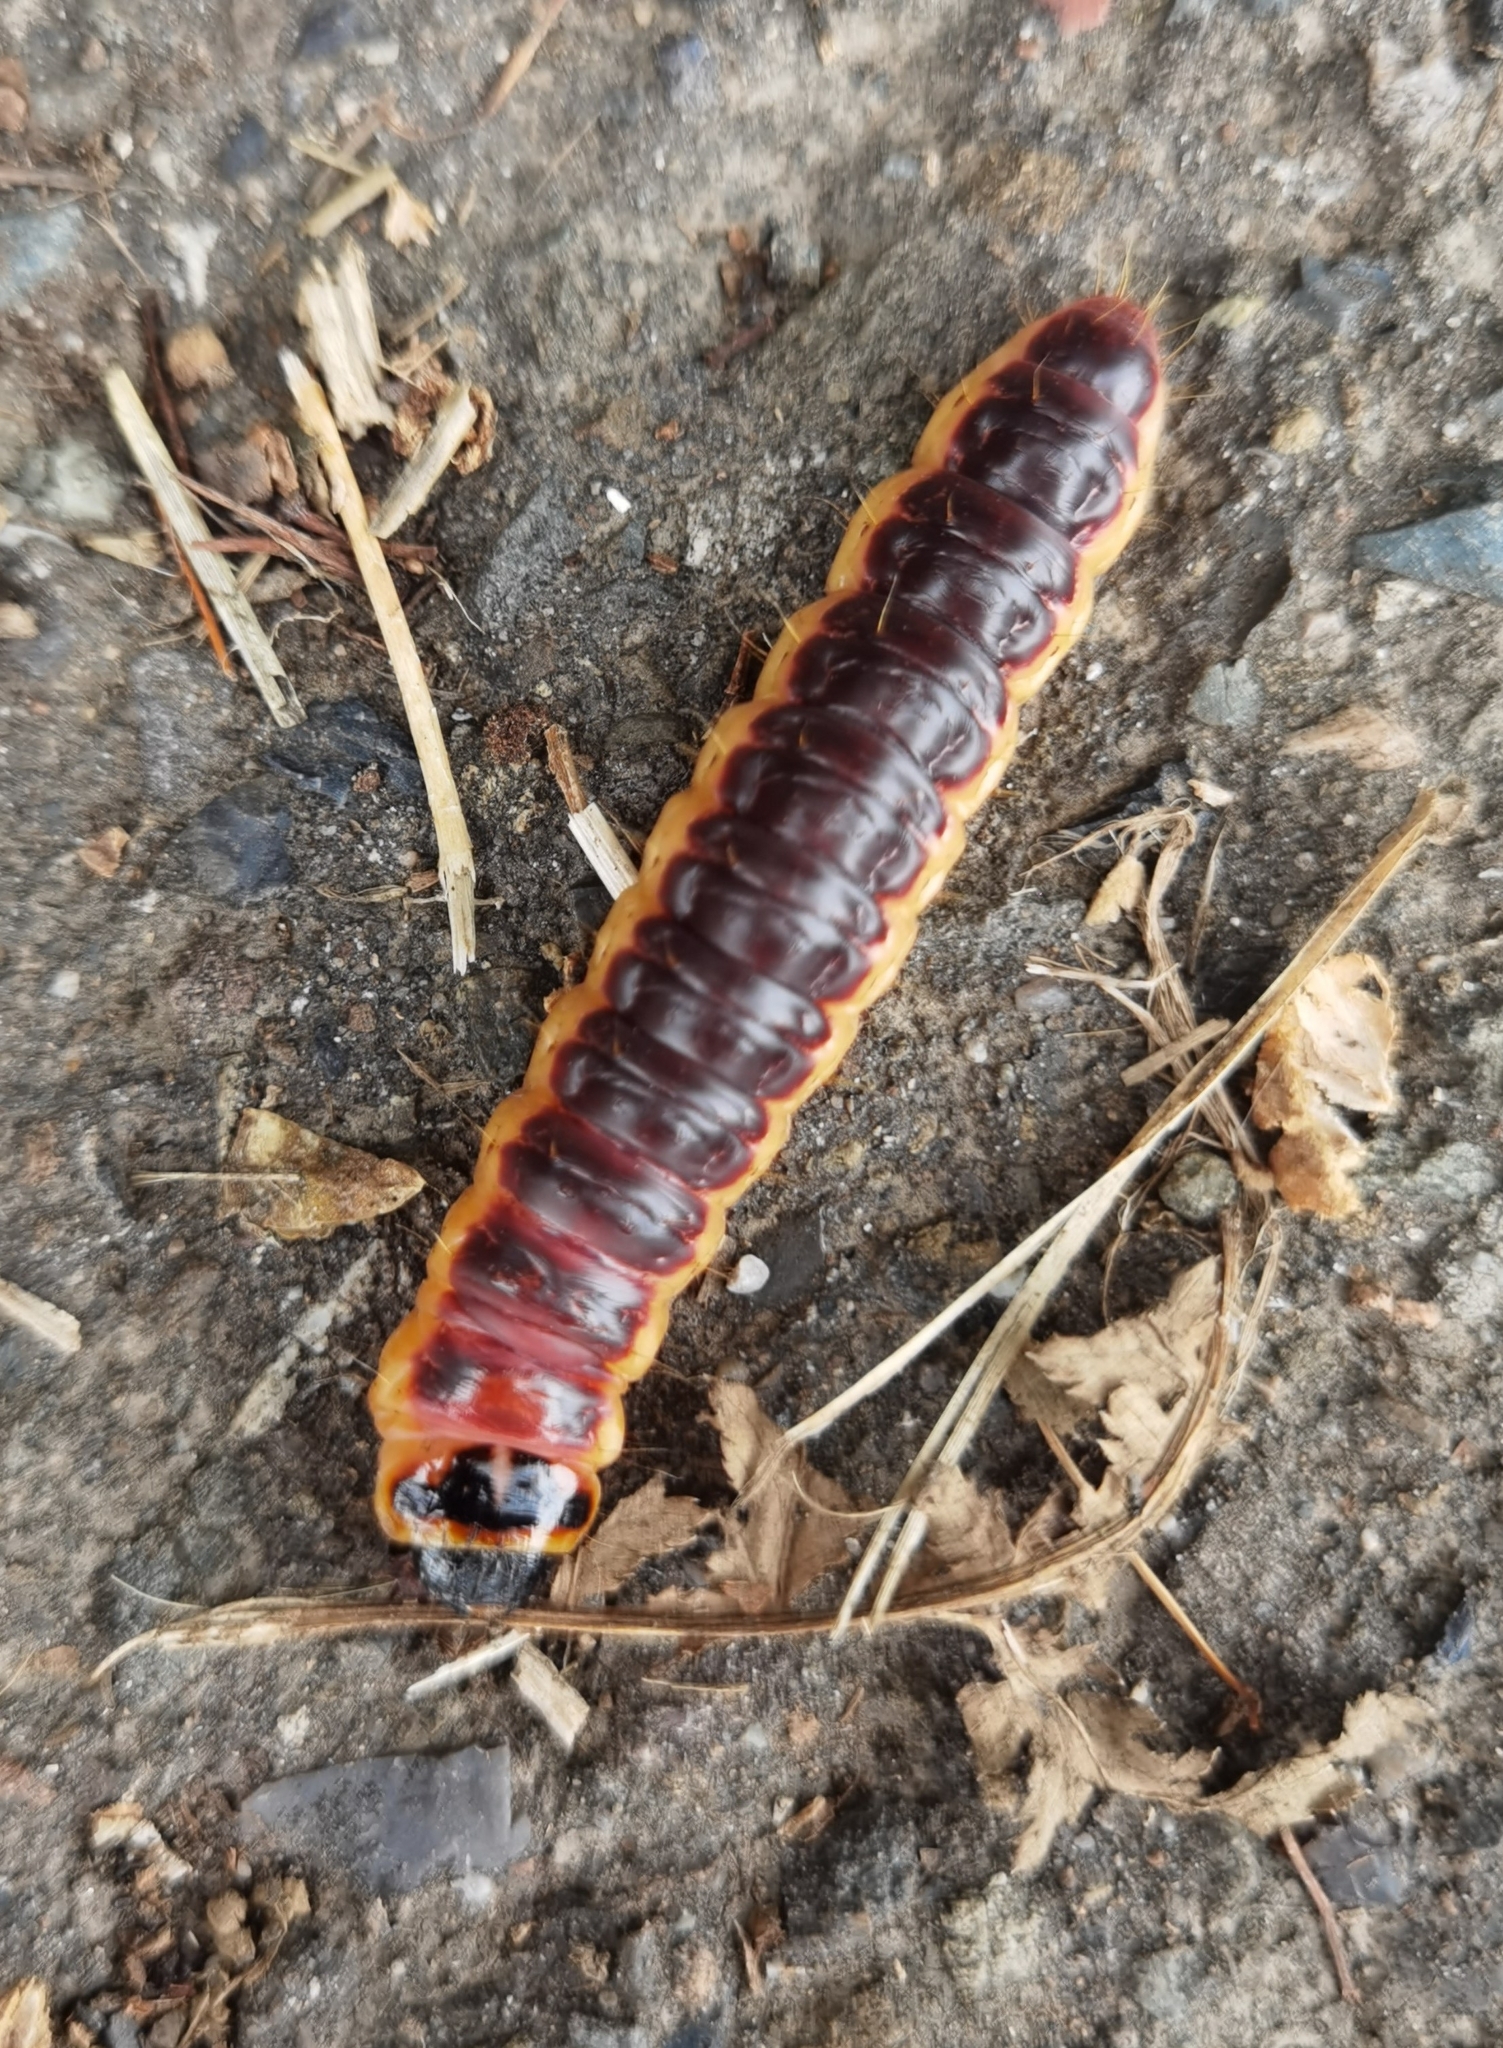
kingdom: Animalia
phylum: Arthropoda
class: Insecta
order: Lepidoptera
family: Cossidae
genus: Cossus
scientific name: Cossus cossus
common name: Goat moth
